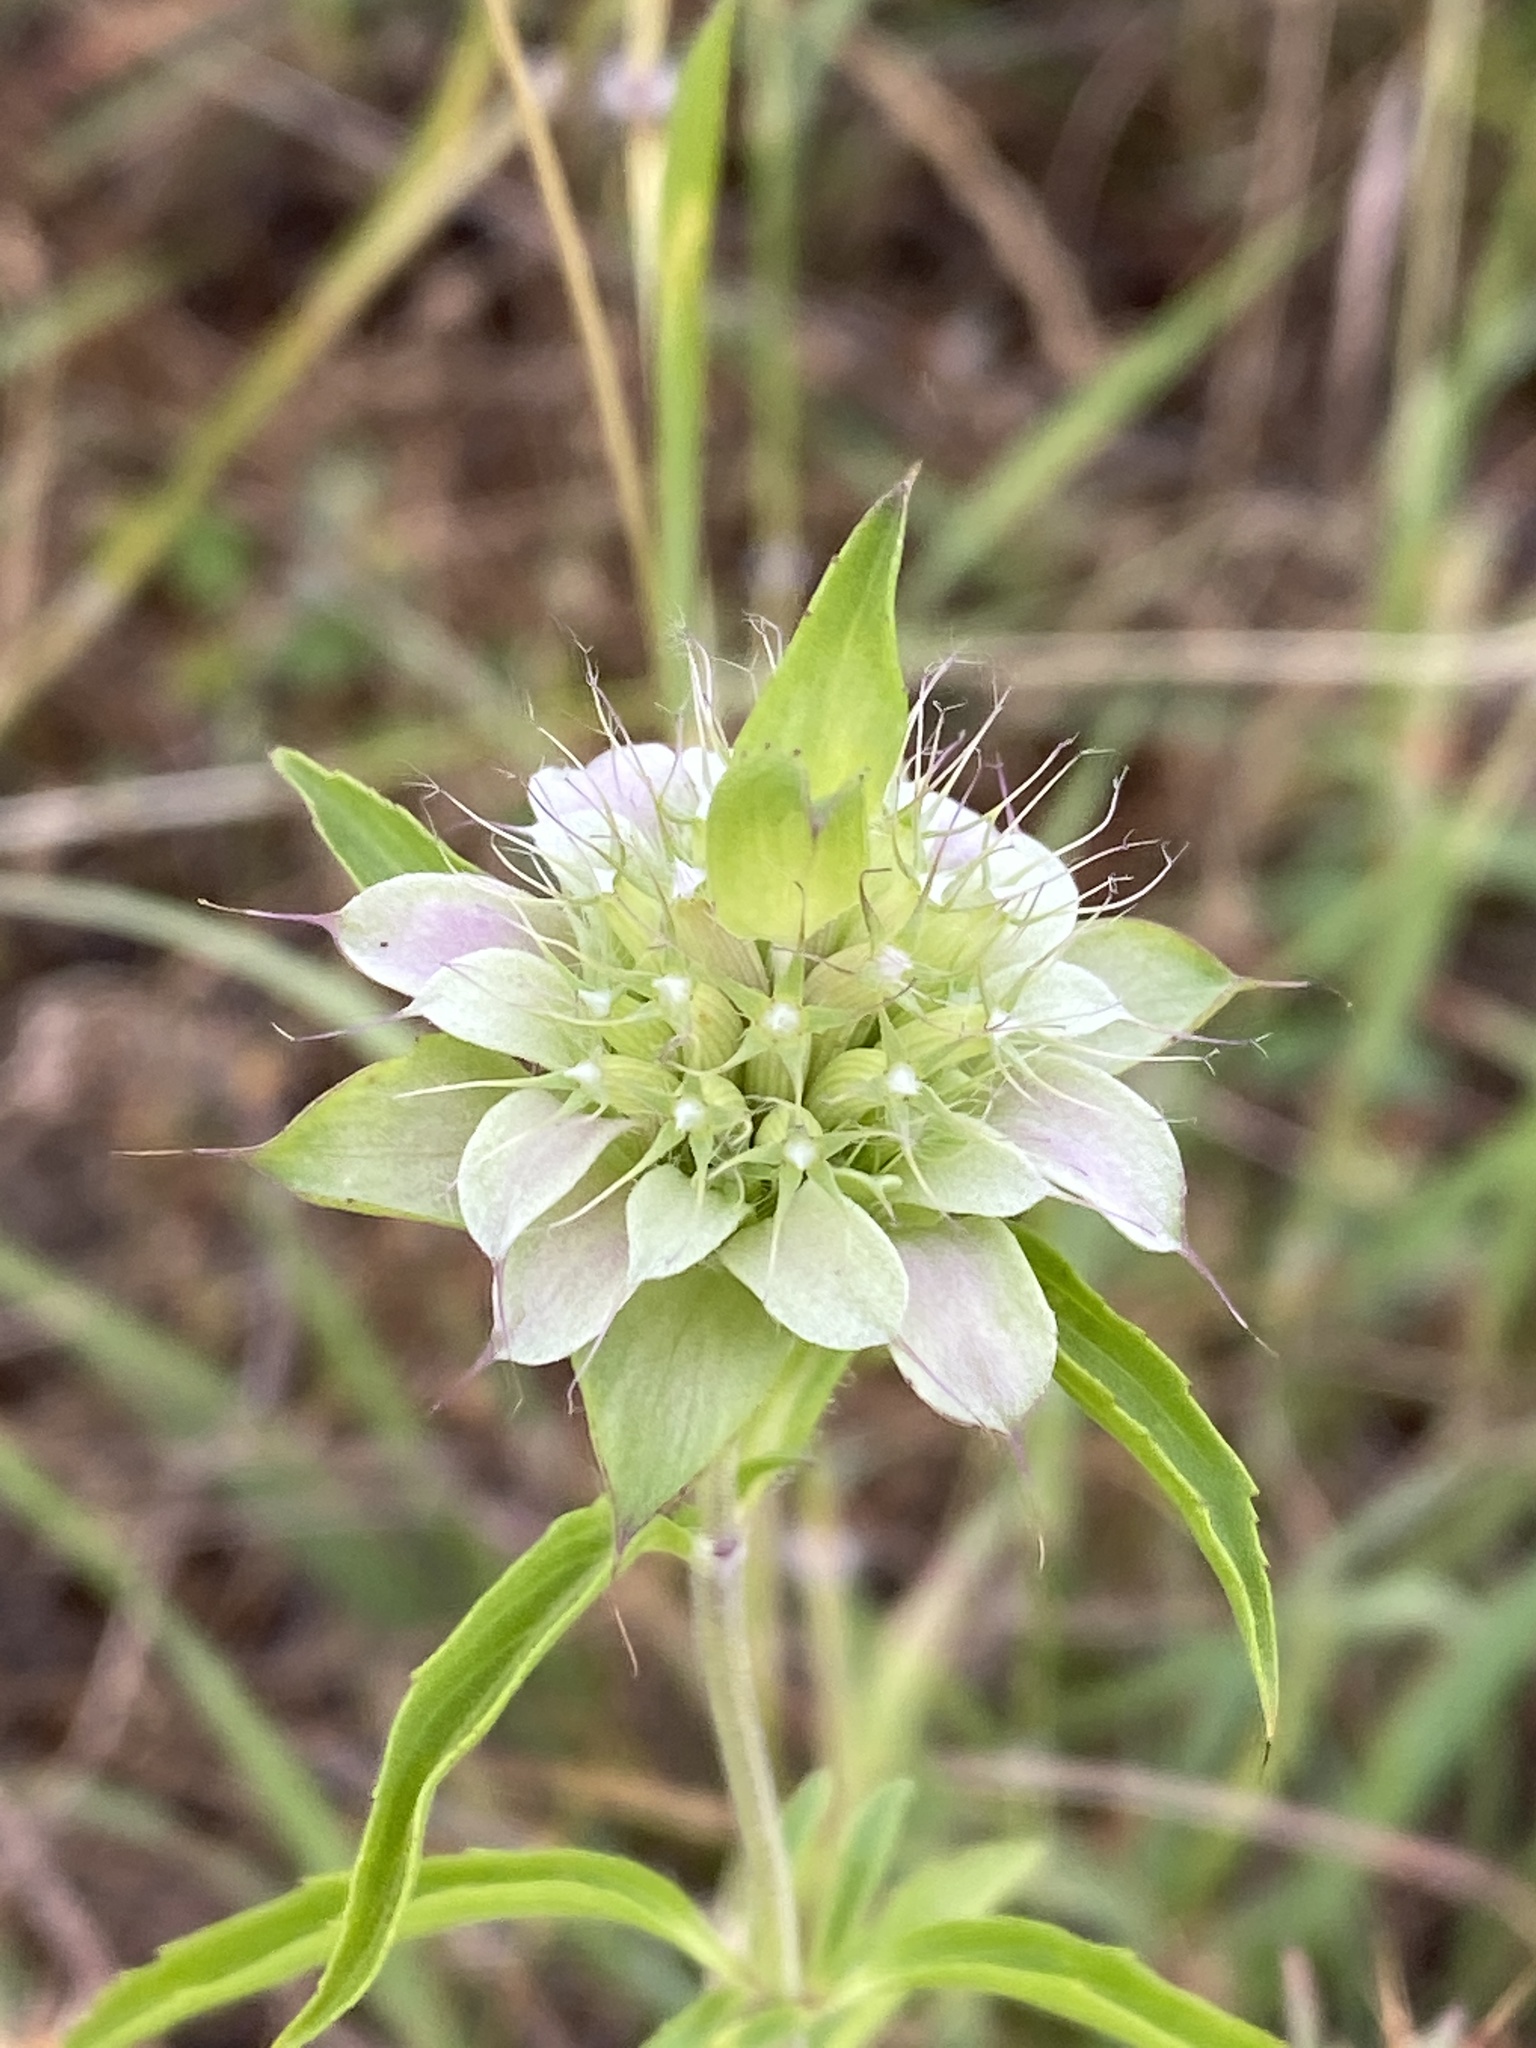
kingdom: Plantae
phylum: Tracheophyta
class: Magnoliopsida
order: Lamiales
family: Lamiaceae
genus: Monarda
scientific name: Monarda citriodora
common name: Lemon beebalm
